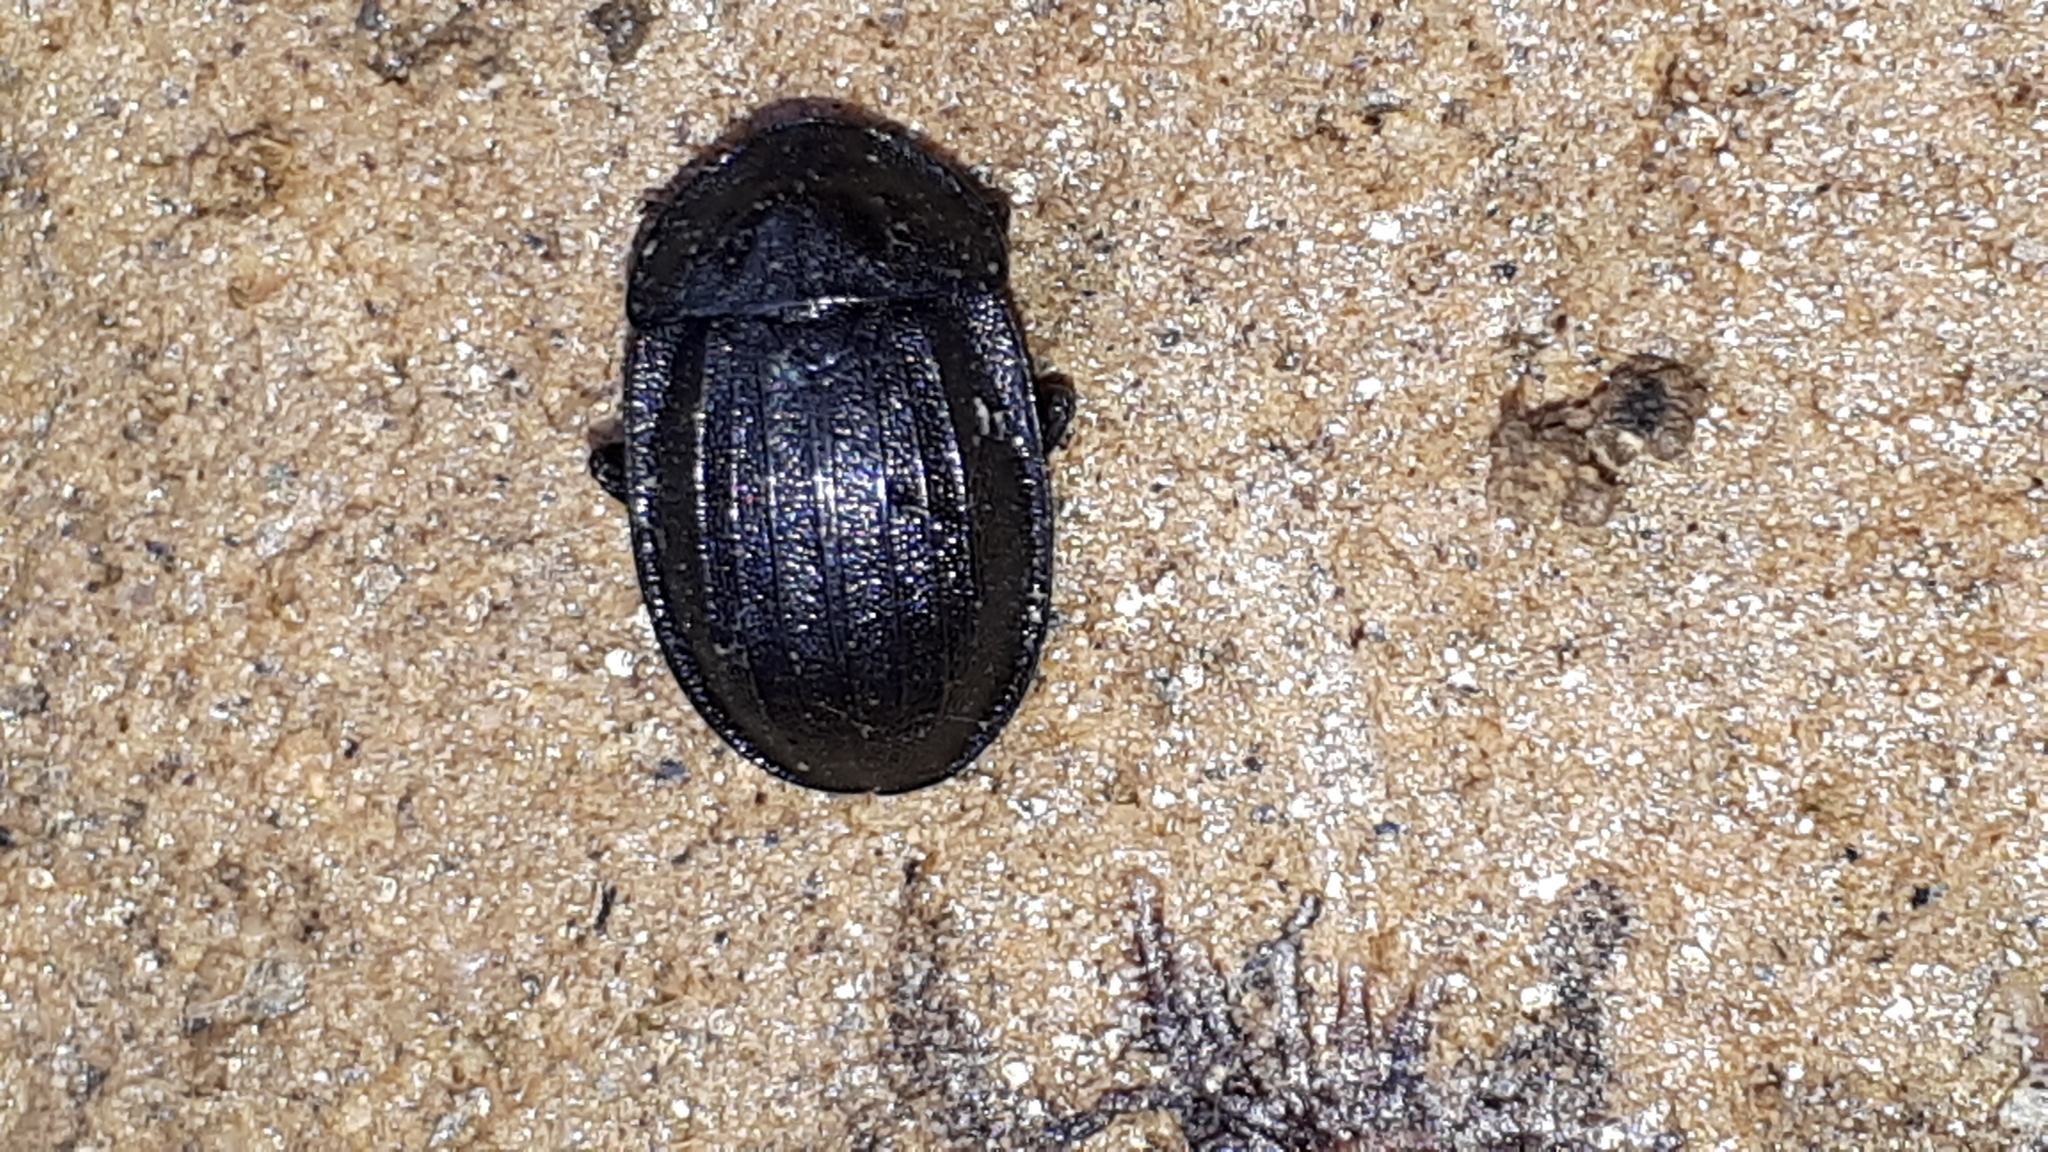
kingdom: Animalia
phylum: Arthropoda
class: Insecta
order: Coleoptera
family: Staphylinidae
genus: Silpha
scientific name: Silpha atrata
